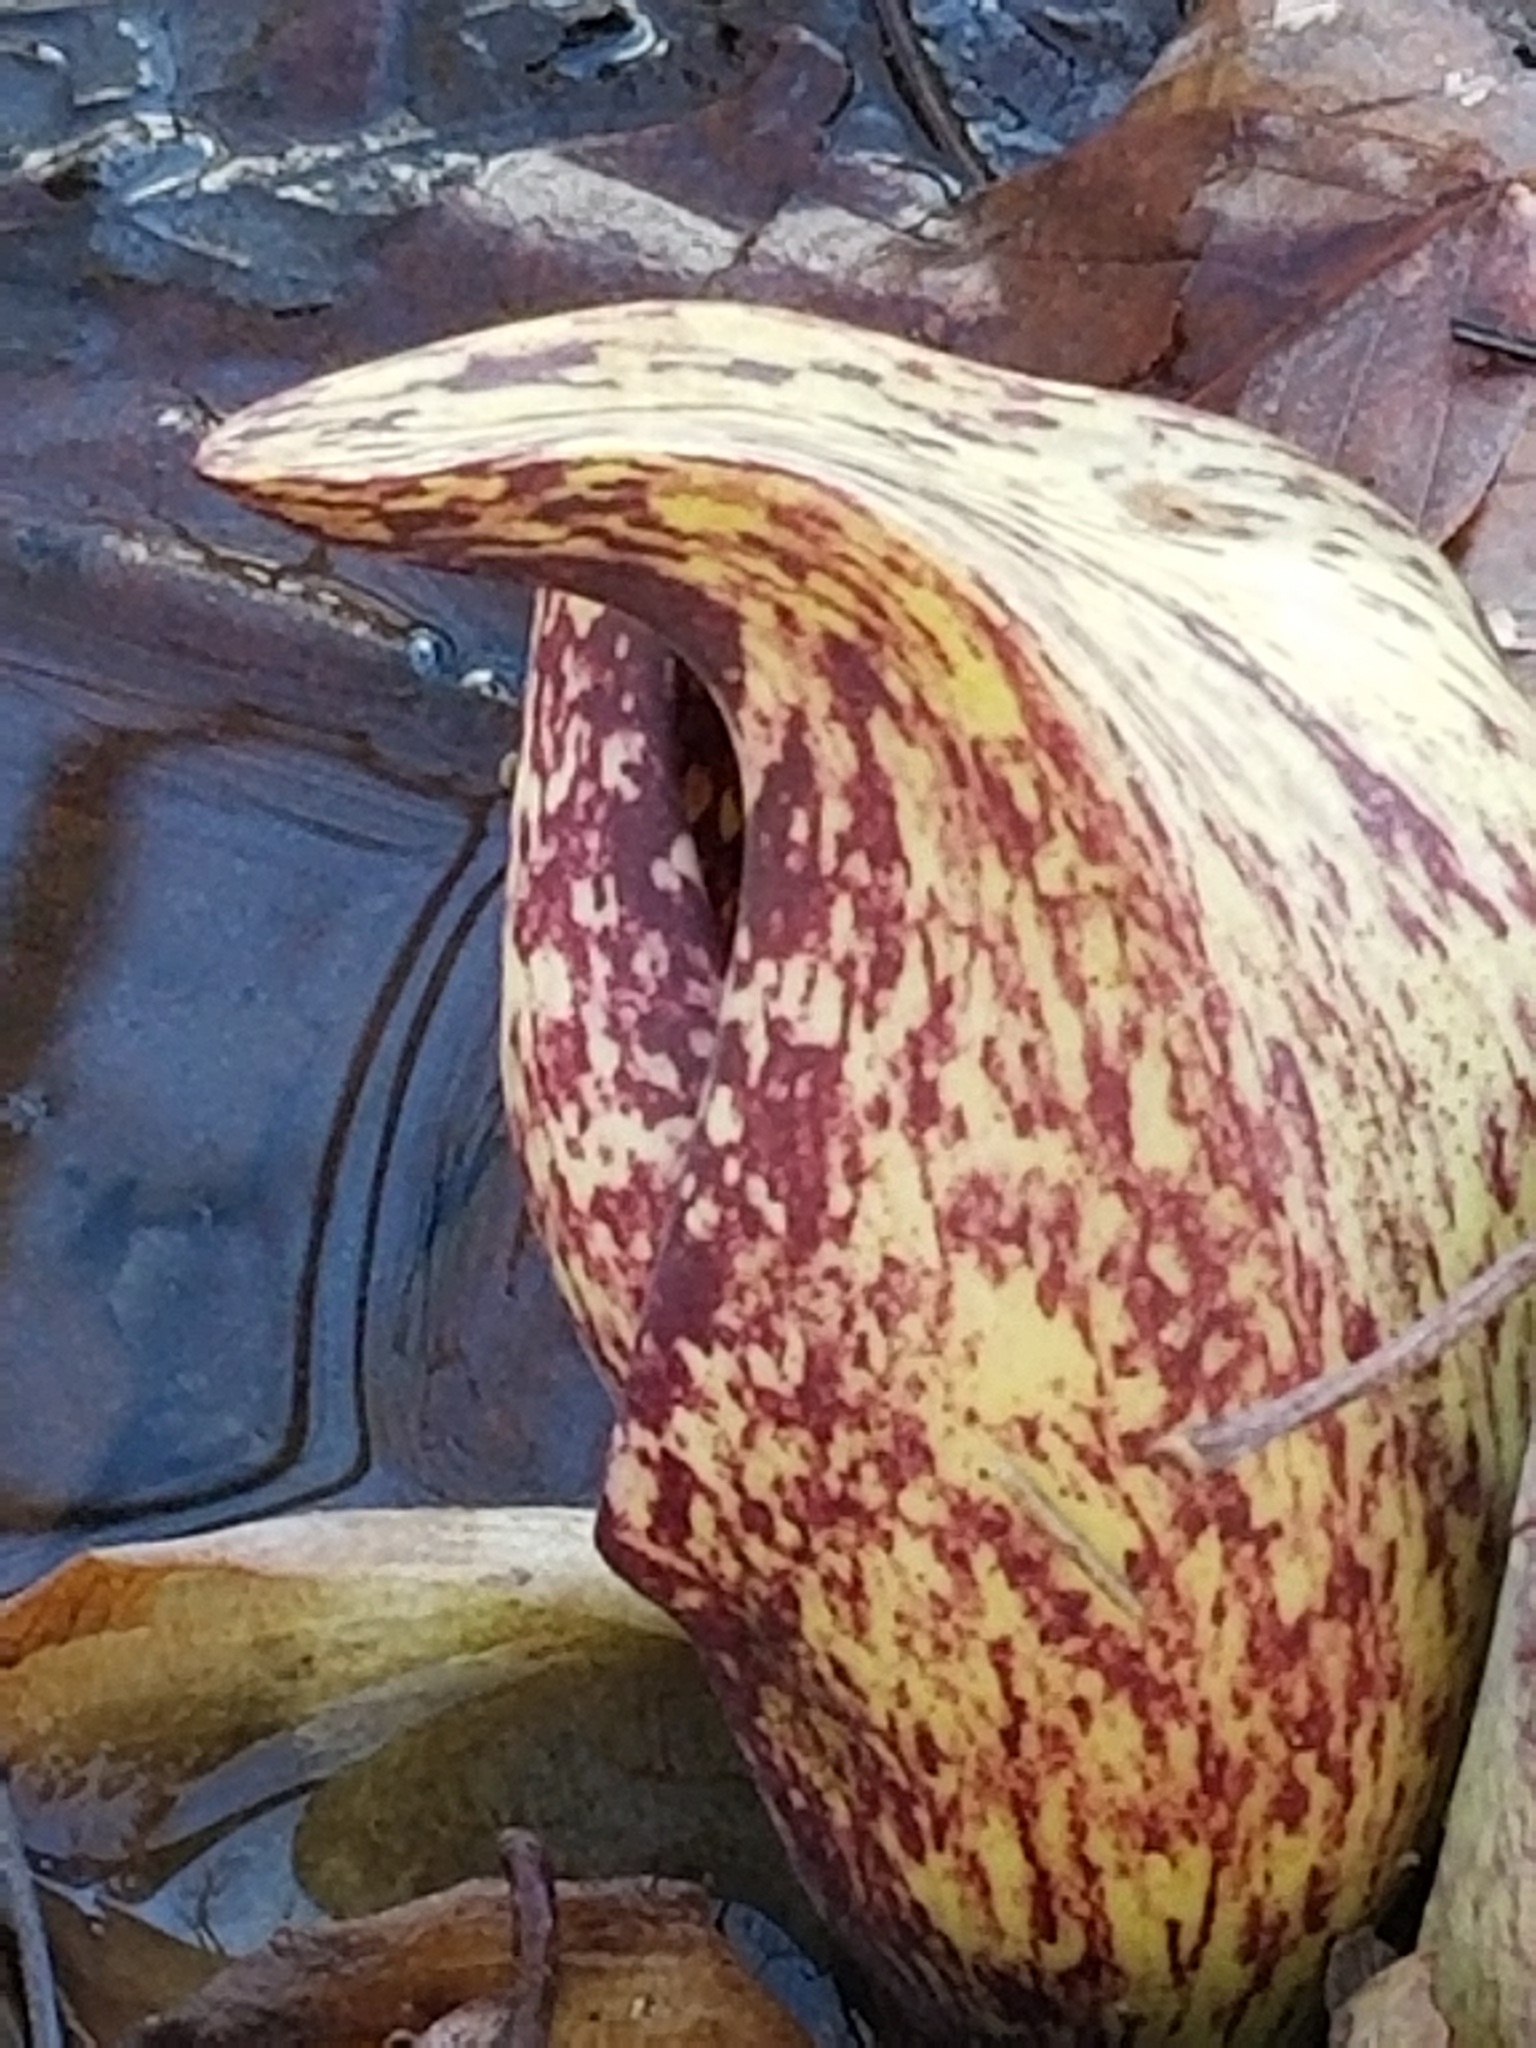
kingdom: Plantae
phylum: Tracheophyta
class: Liliopsida
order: Alismatales
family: Araceae
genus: Symplocarpus
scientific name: Symplocarpus foetidus
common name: Eastern skunk cabbage
